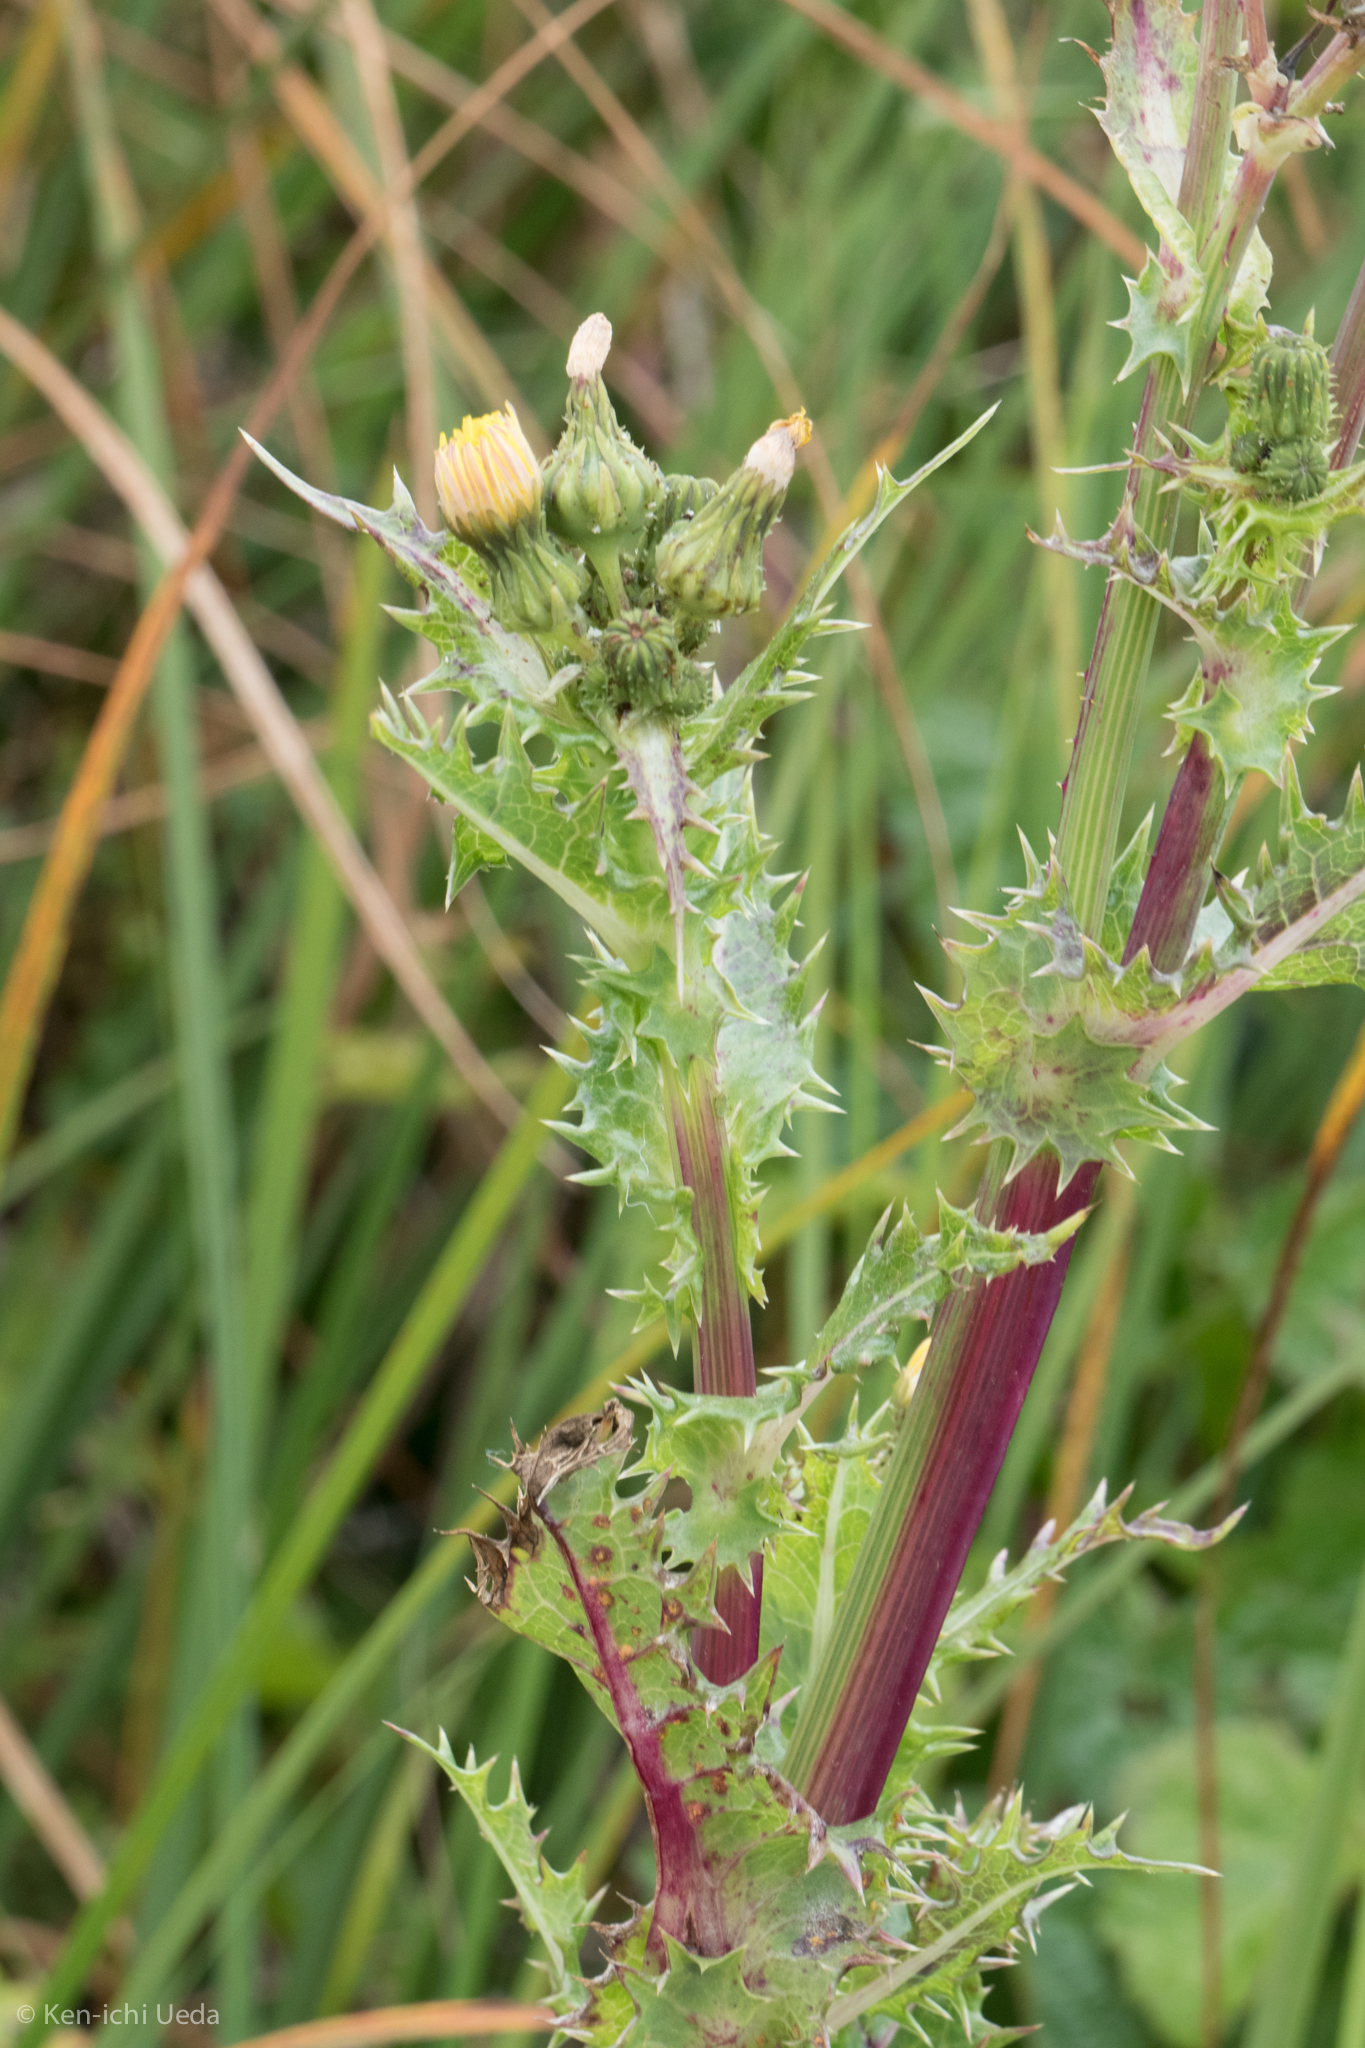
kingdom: Plantae
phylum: Tracheophyta
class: Magnoliopsida
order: Asterales
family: Asteraceae
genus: Sonchus
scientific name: Sonchus asper
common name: Prickly sow-thistle
